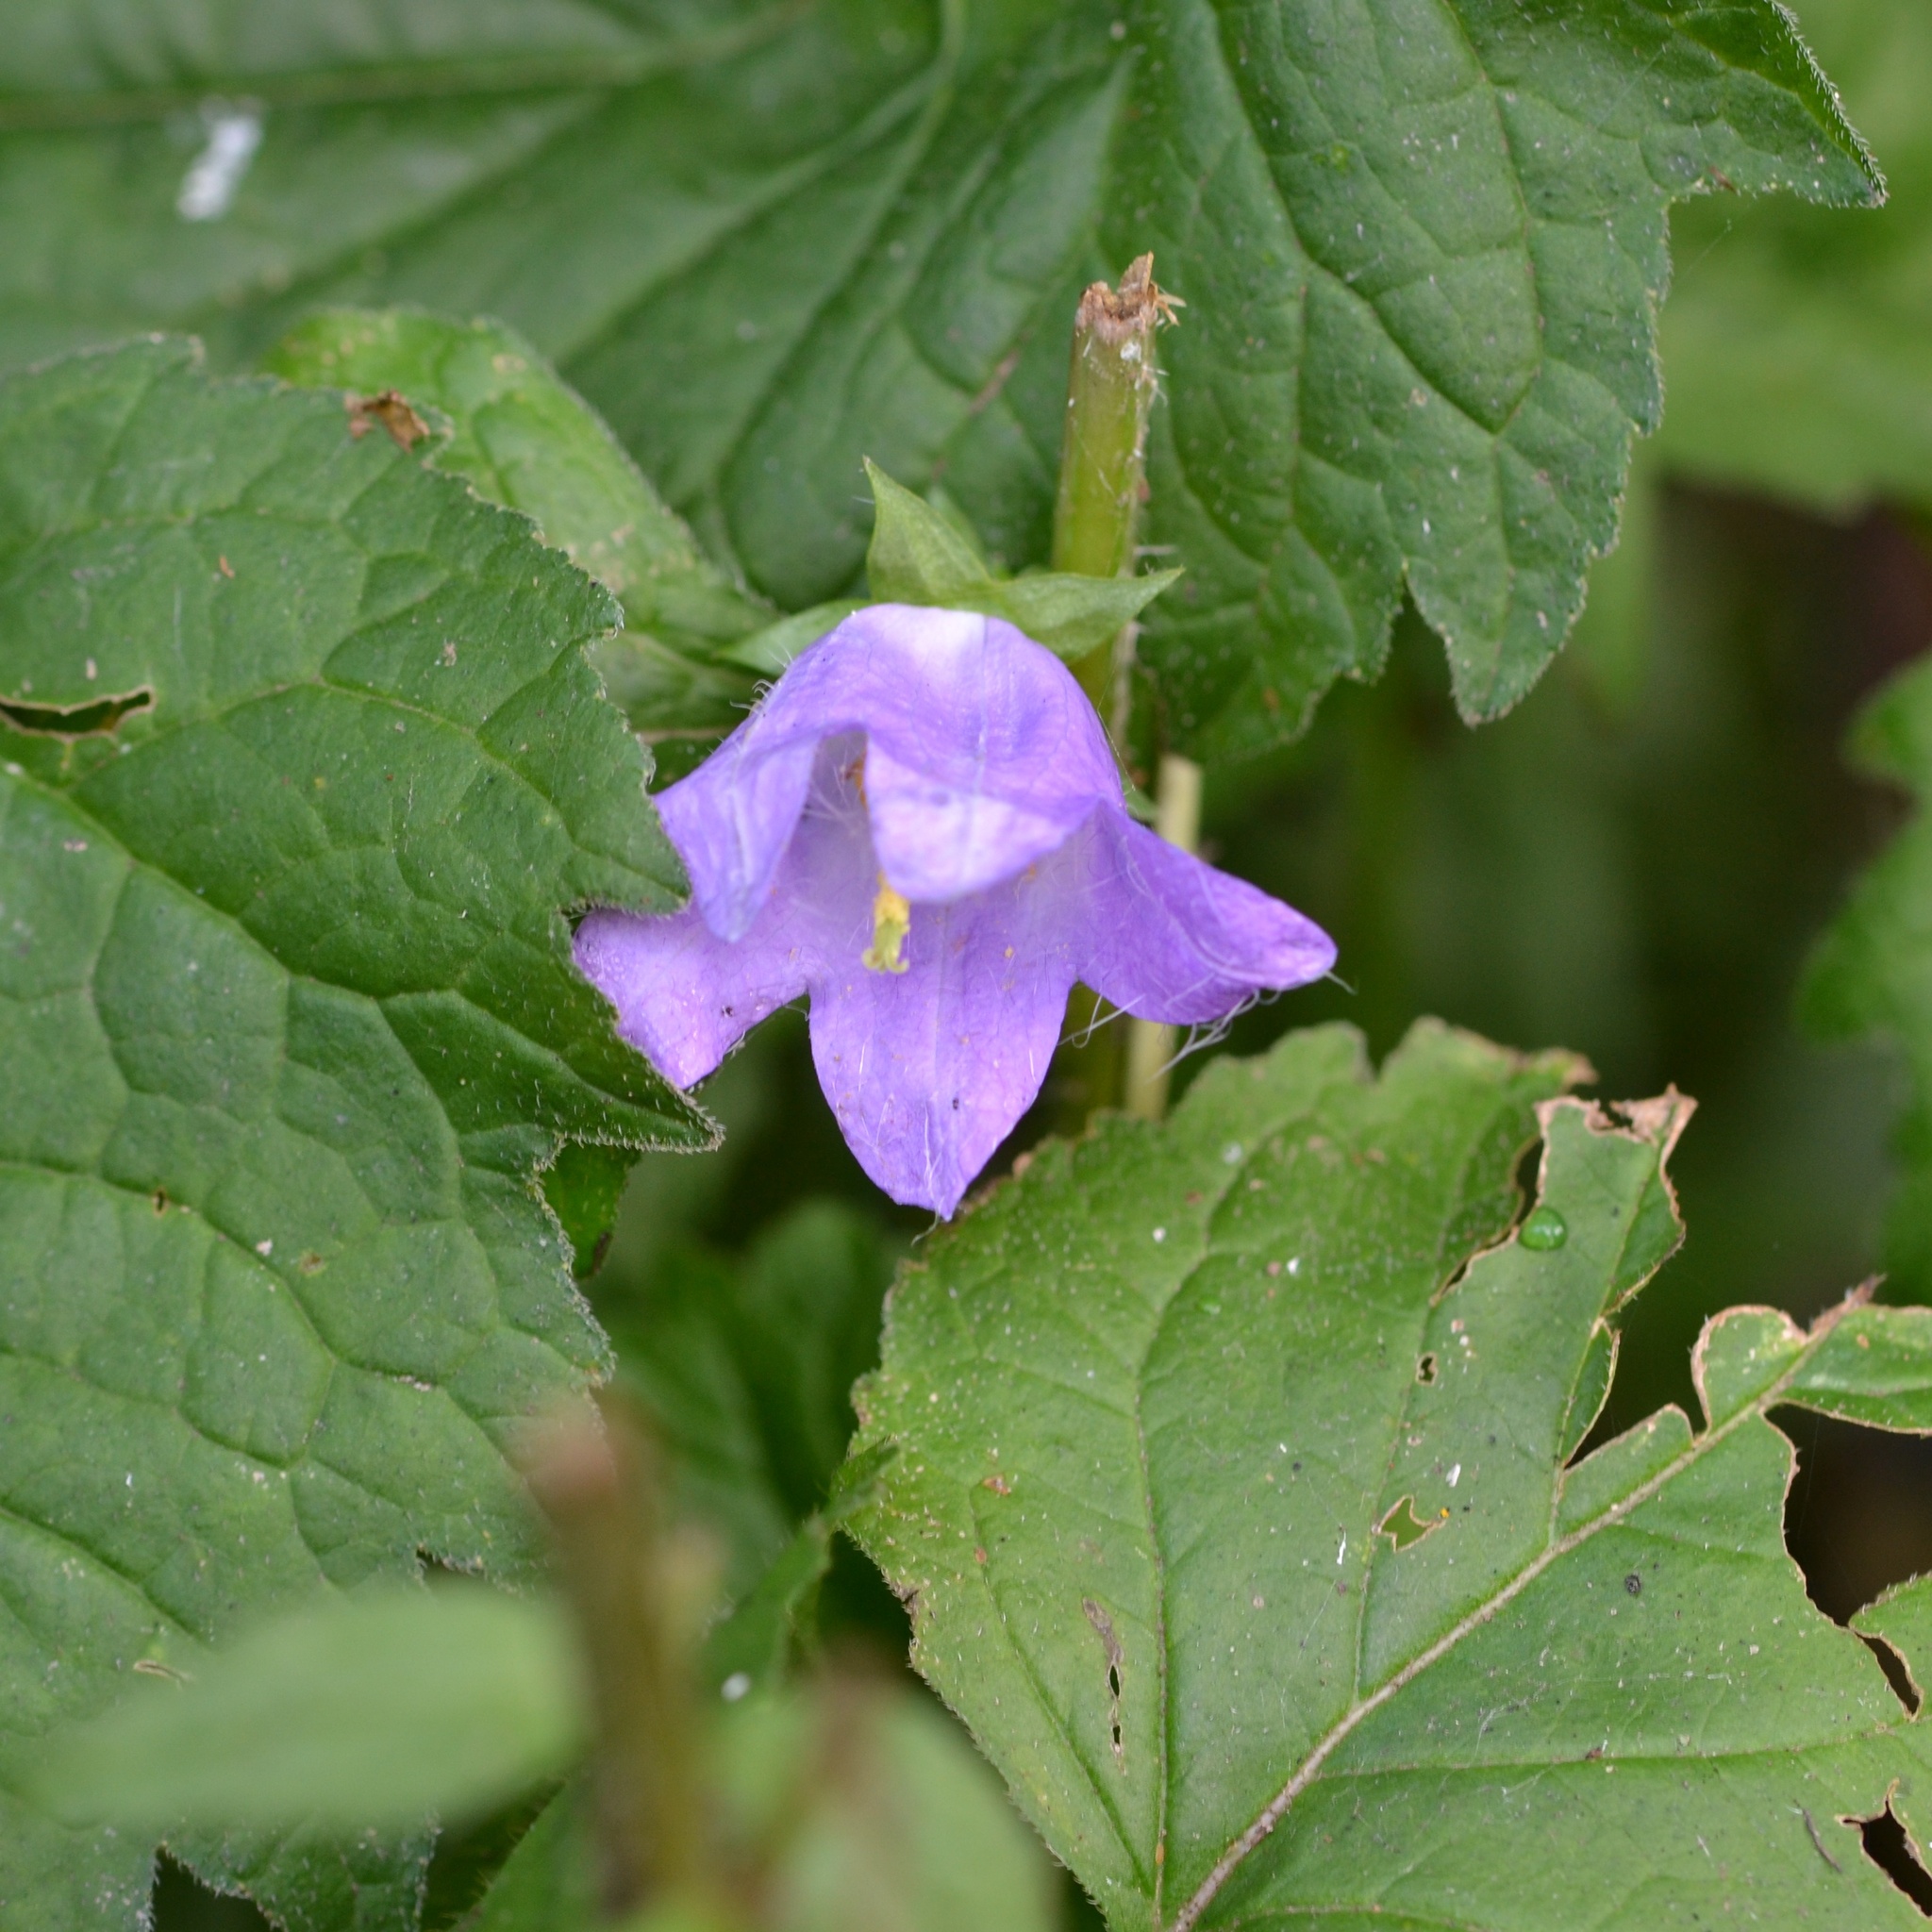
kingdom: Plantae
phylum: Tracheophyta
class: Magnoliopsida
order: Asterales
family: Campanulaceae
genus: Campanula
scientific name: Campanula trachelium
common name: Nettle-leaved bellflower
